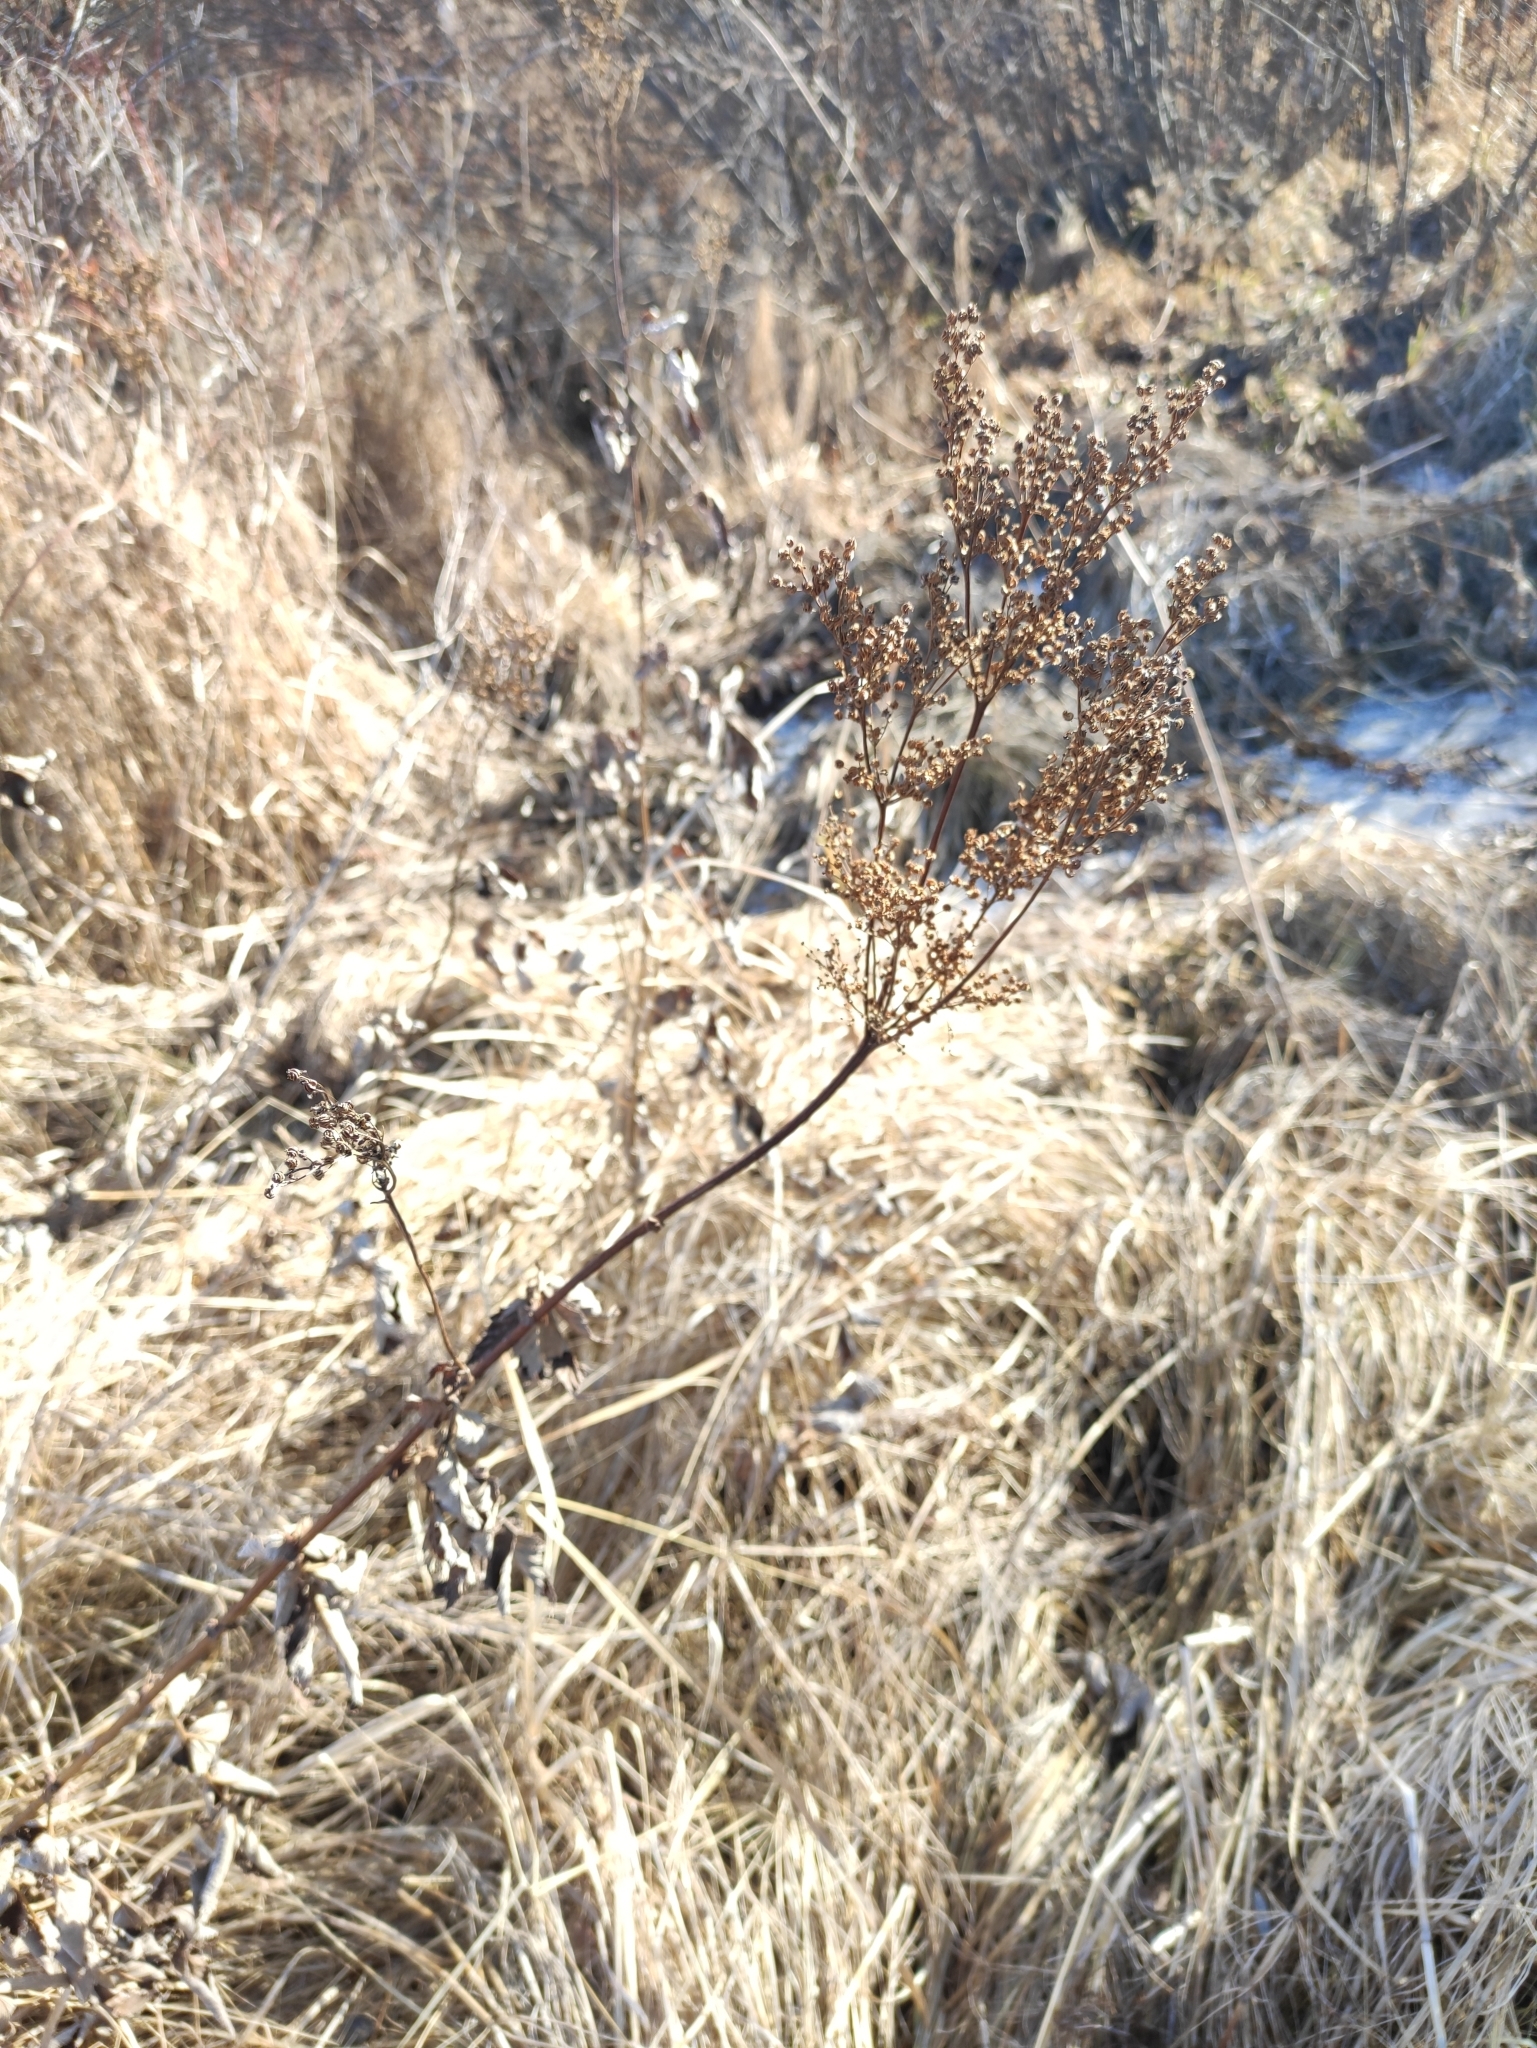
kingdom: Plantae
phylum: Tracheophyta
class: Magnoliopsida
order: Rosales
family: Rosaceae
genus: Filipendula
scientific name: Filipendula ulmaria
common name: Meadowsweet
